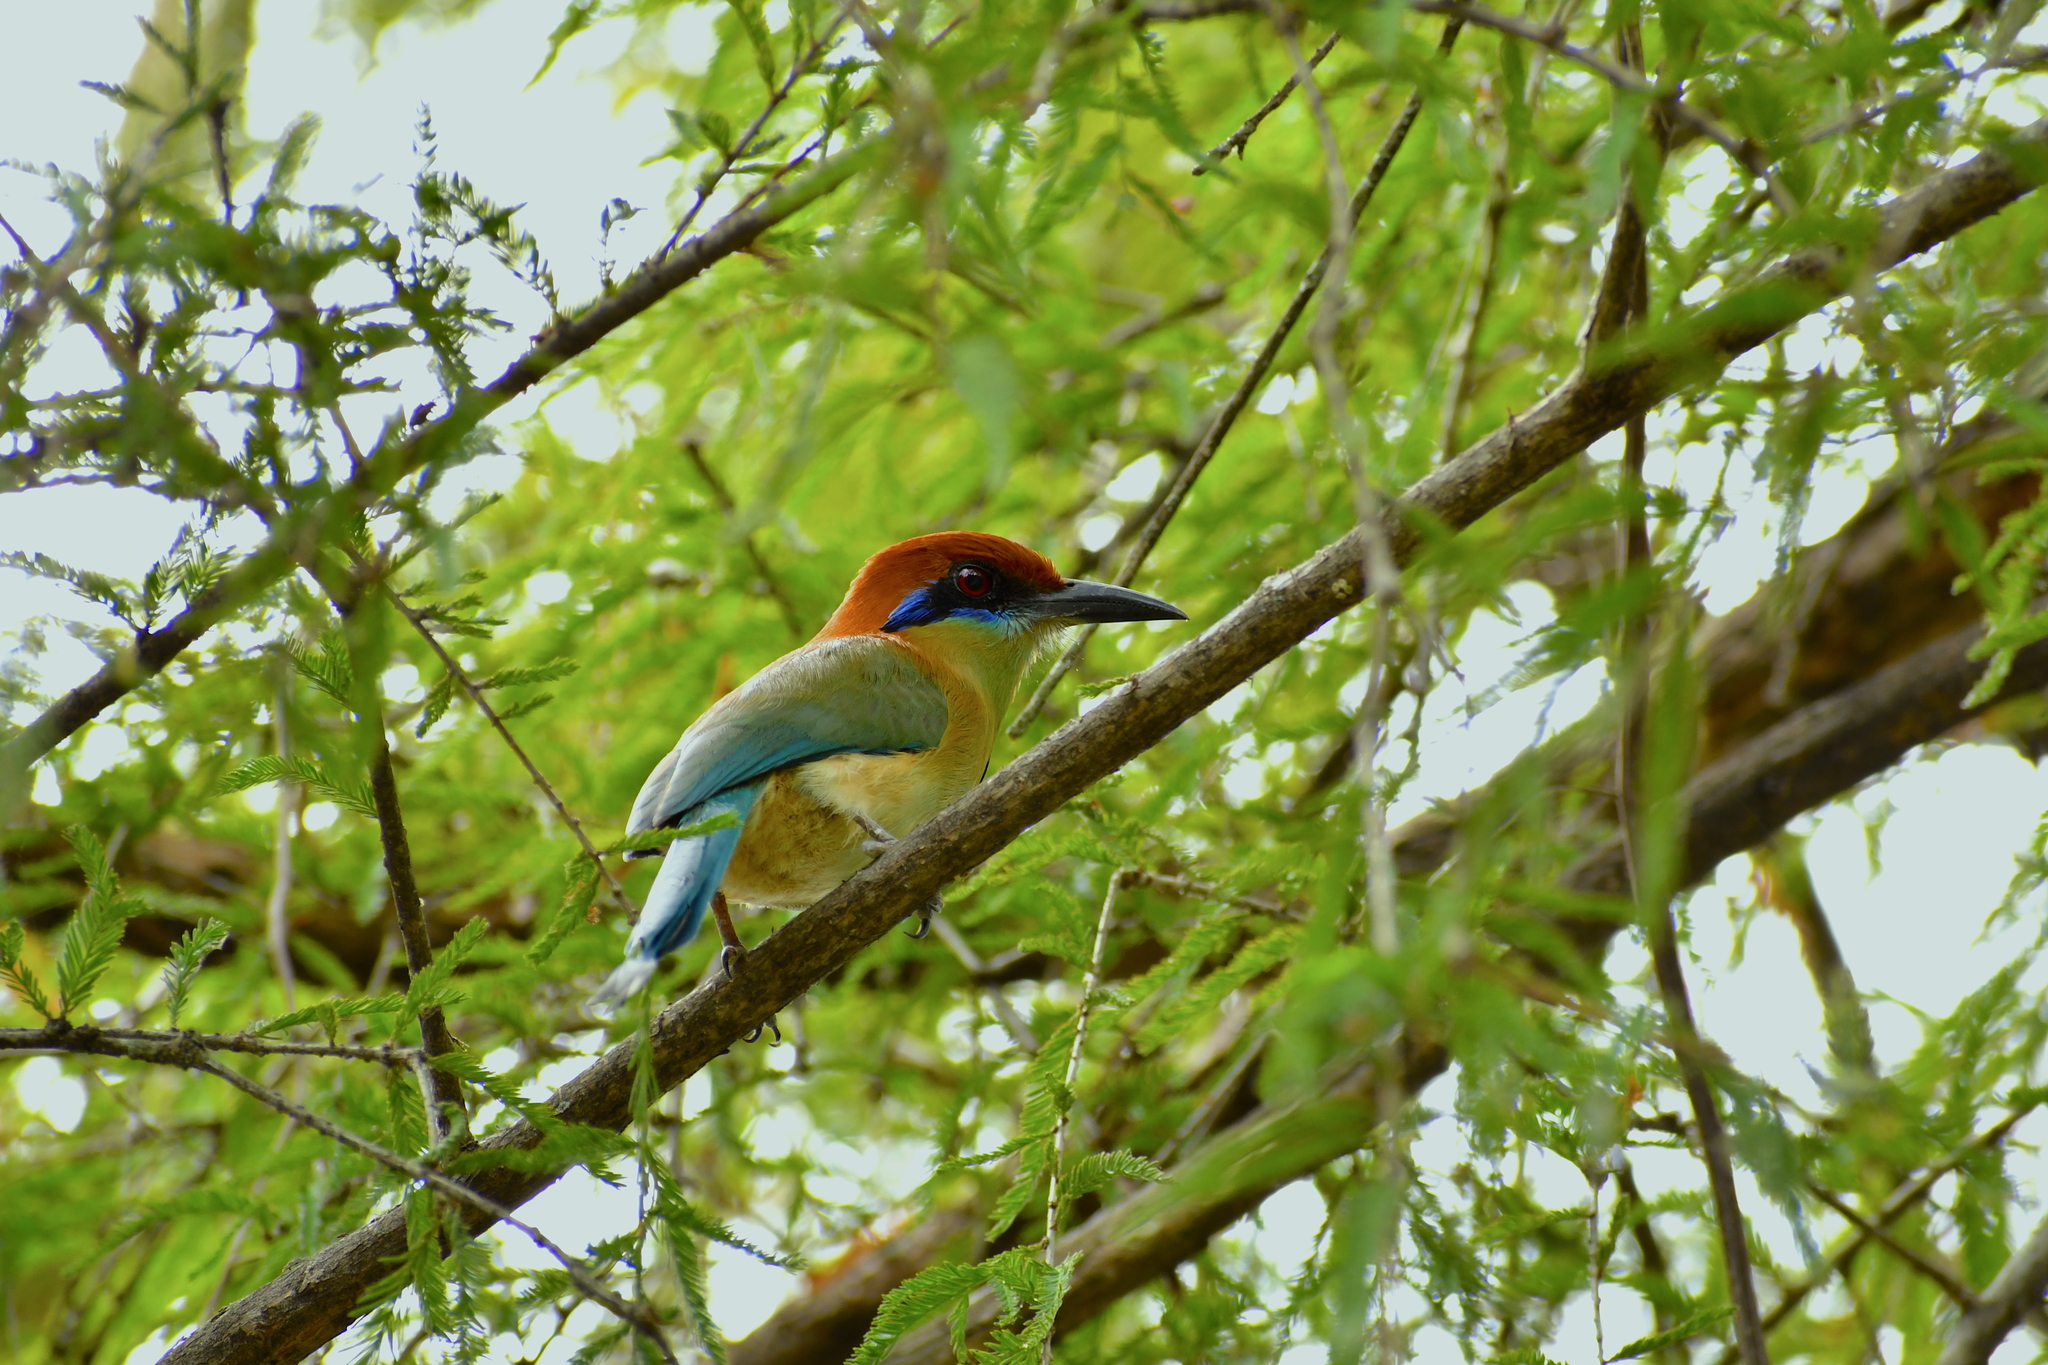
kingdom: Animalia
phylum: Chordata
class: Aves
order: Coraciiformes
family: Momotidae
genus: Momotus
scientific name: Momotus mexicanus
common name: Russet-crowned motmot
